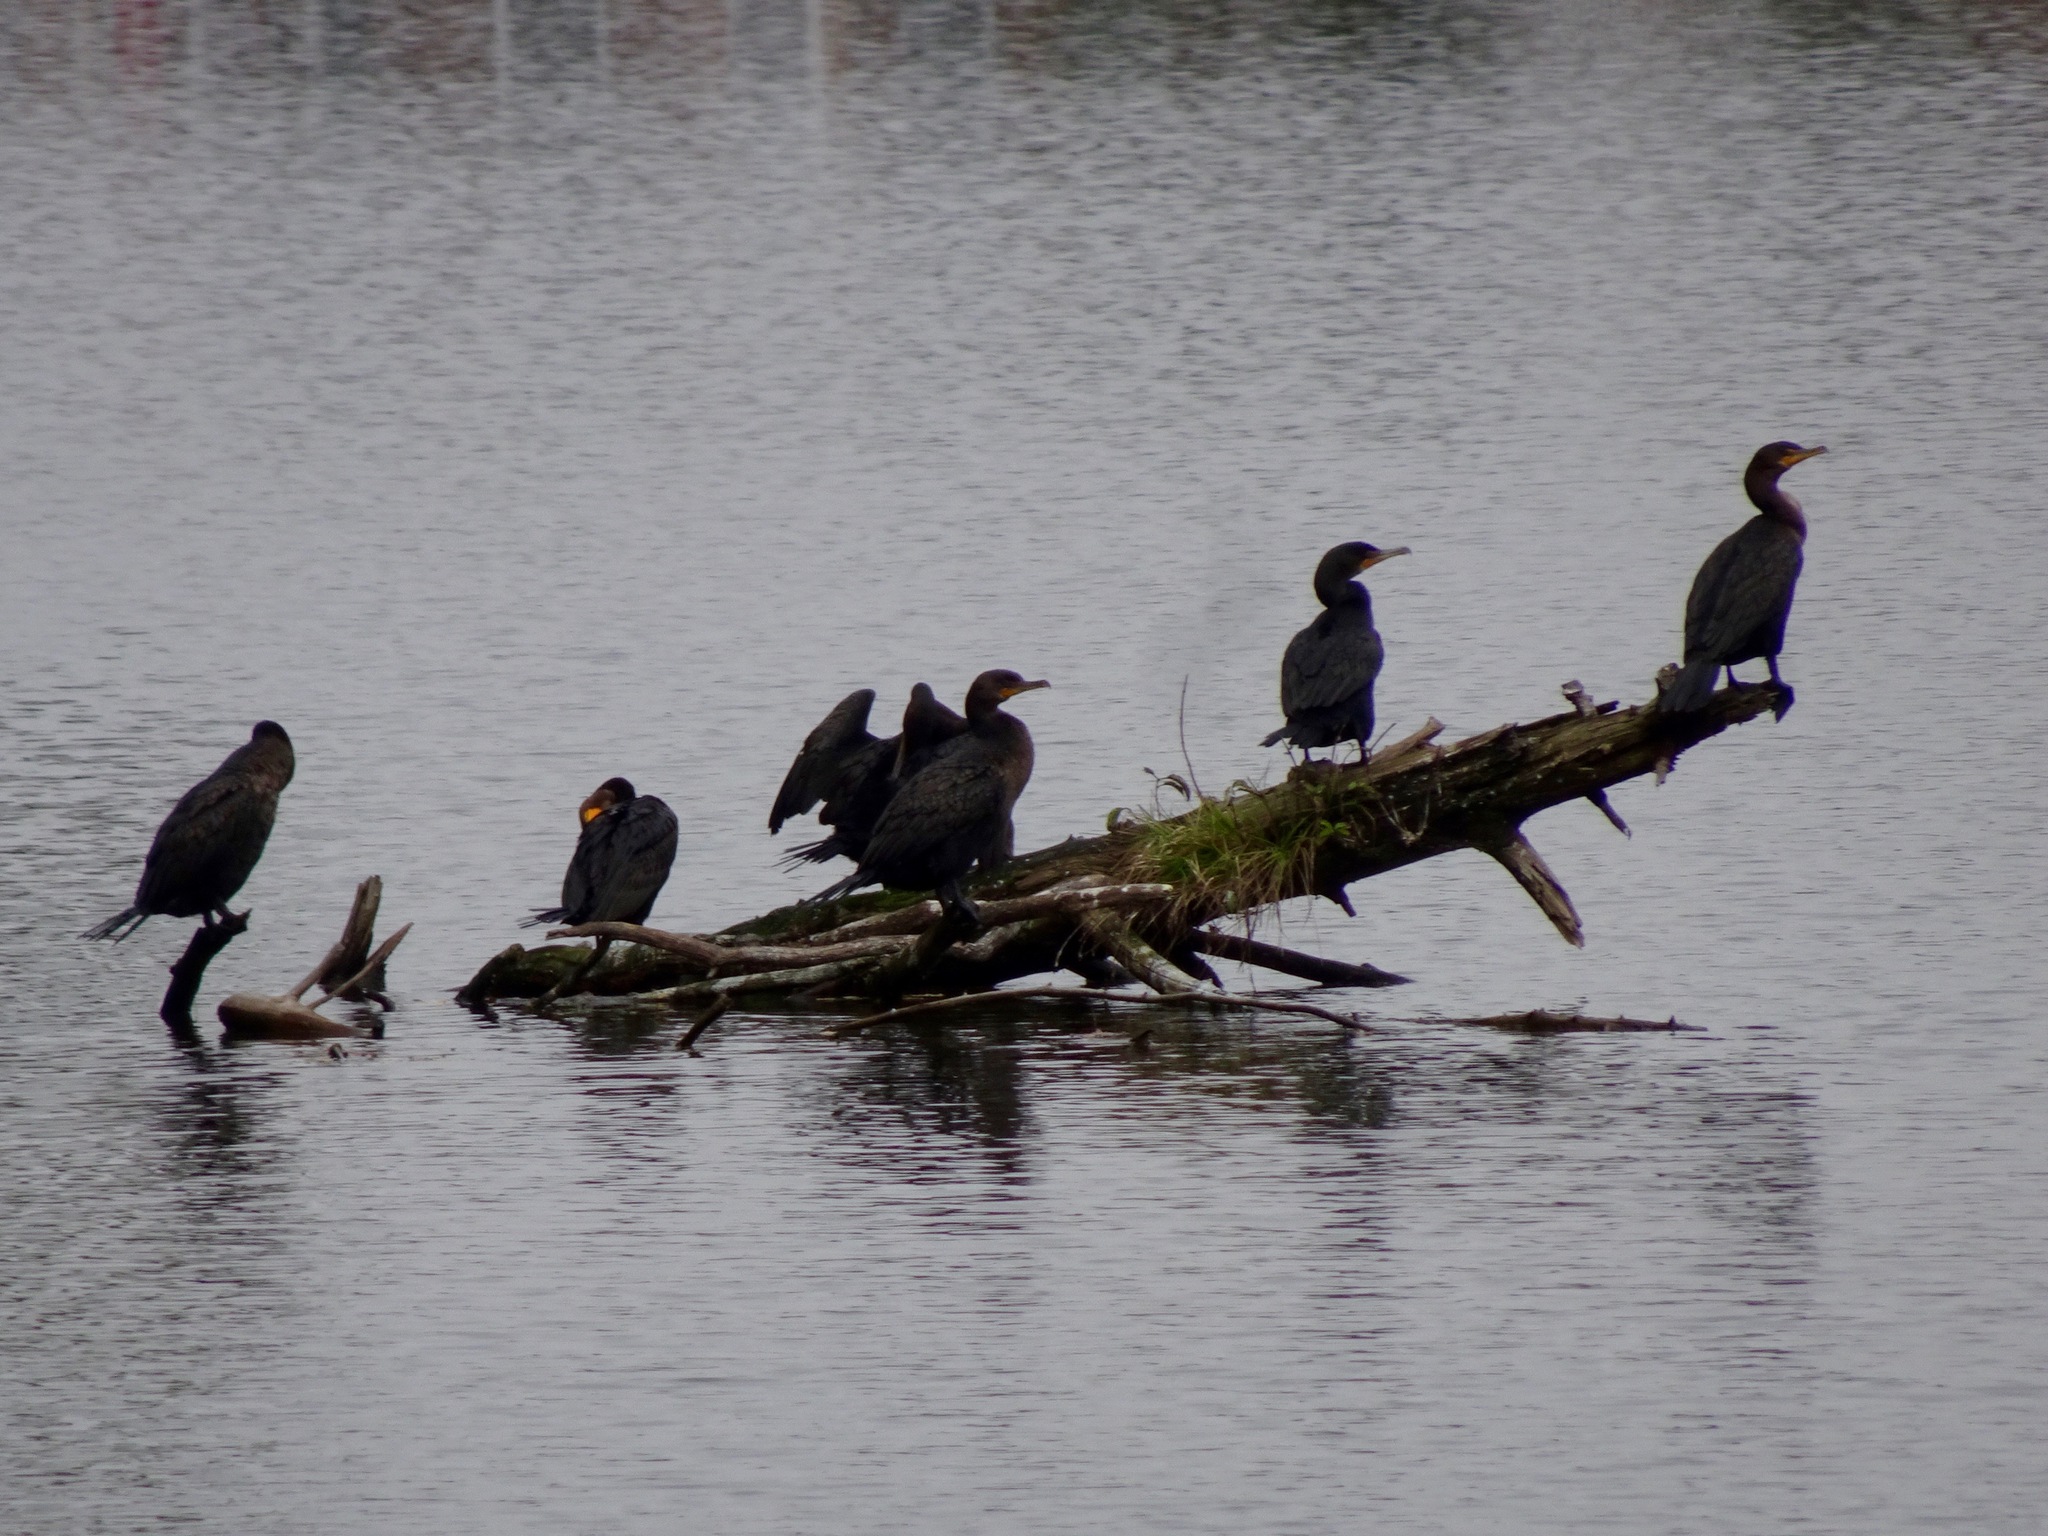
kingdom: Animalia
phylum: Chordata
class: Aves
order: Suliformes
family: Phalacrocoracidae
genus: Phalacrocorax
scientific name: Phalacrocorax auritus
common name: Double-crested cormorant
